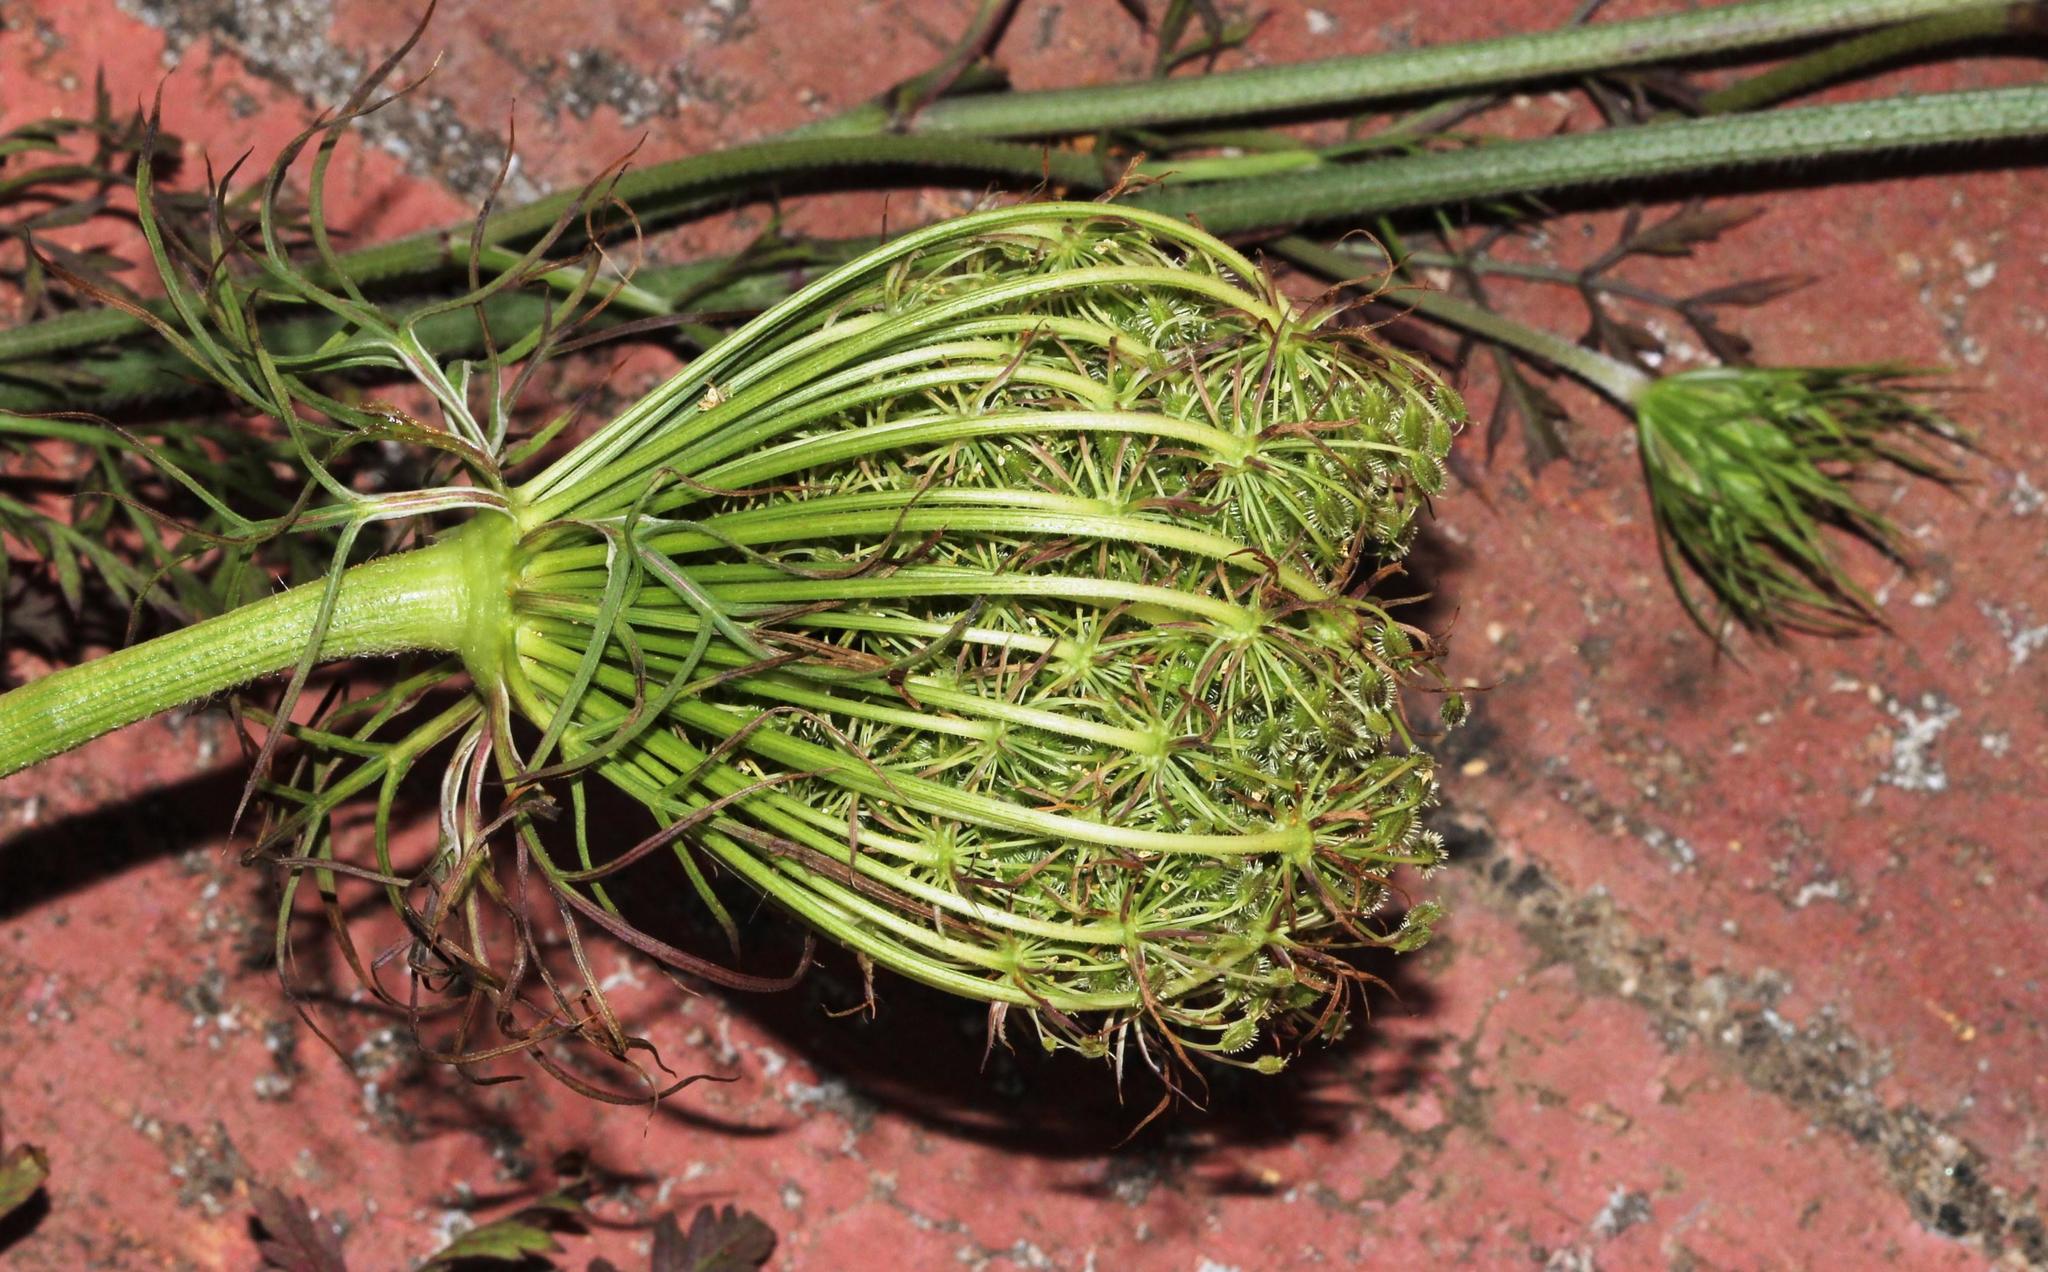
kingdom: Plantae
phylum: Tracheophyta
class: Magnoliopsida
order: Apiales
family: Apiaceae
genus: Daucus
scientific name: Daucus carota
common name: Wild carrot
